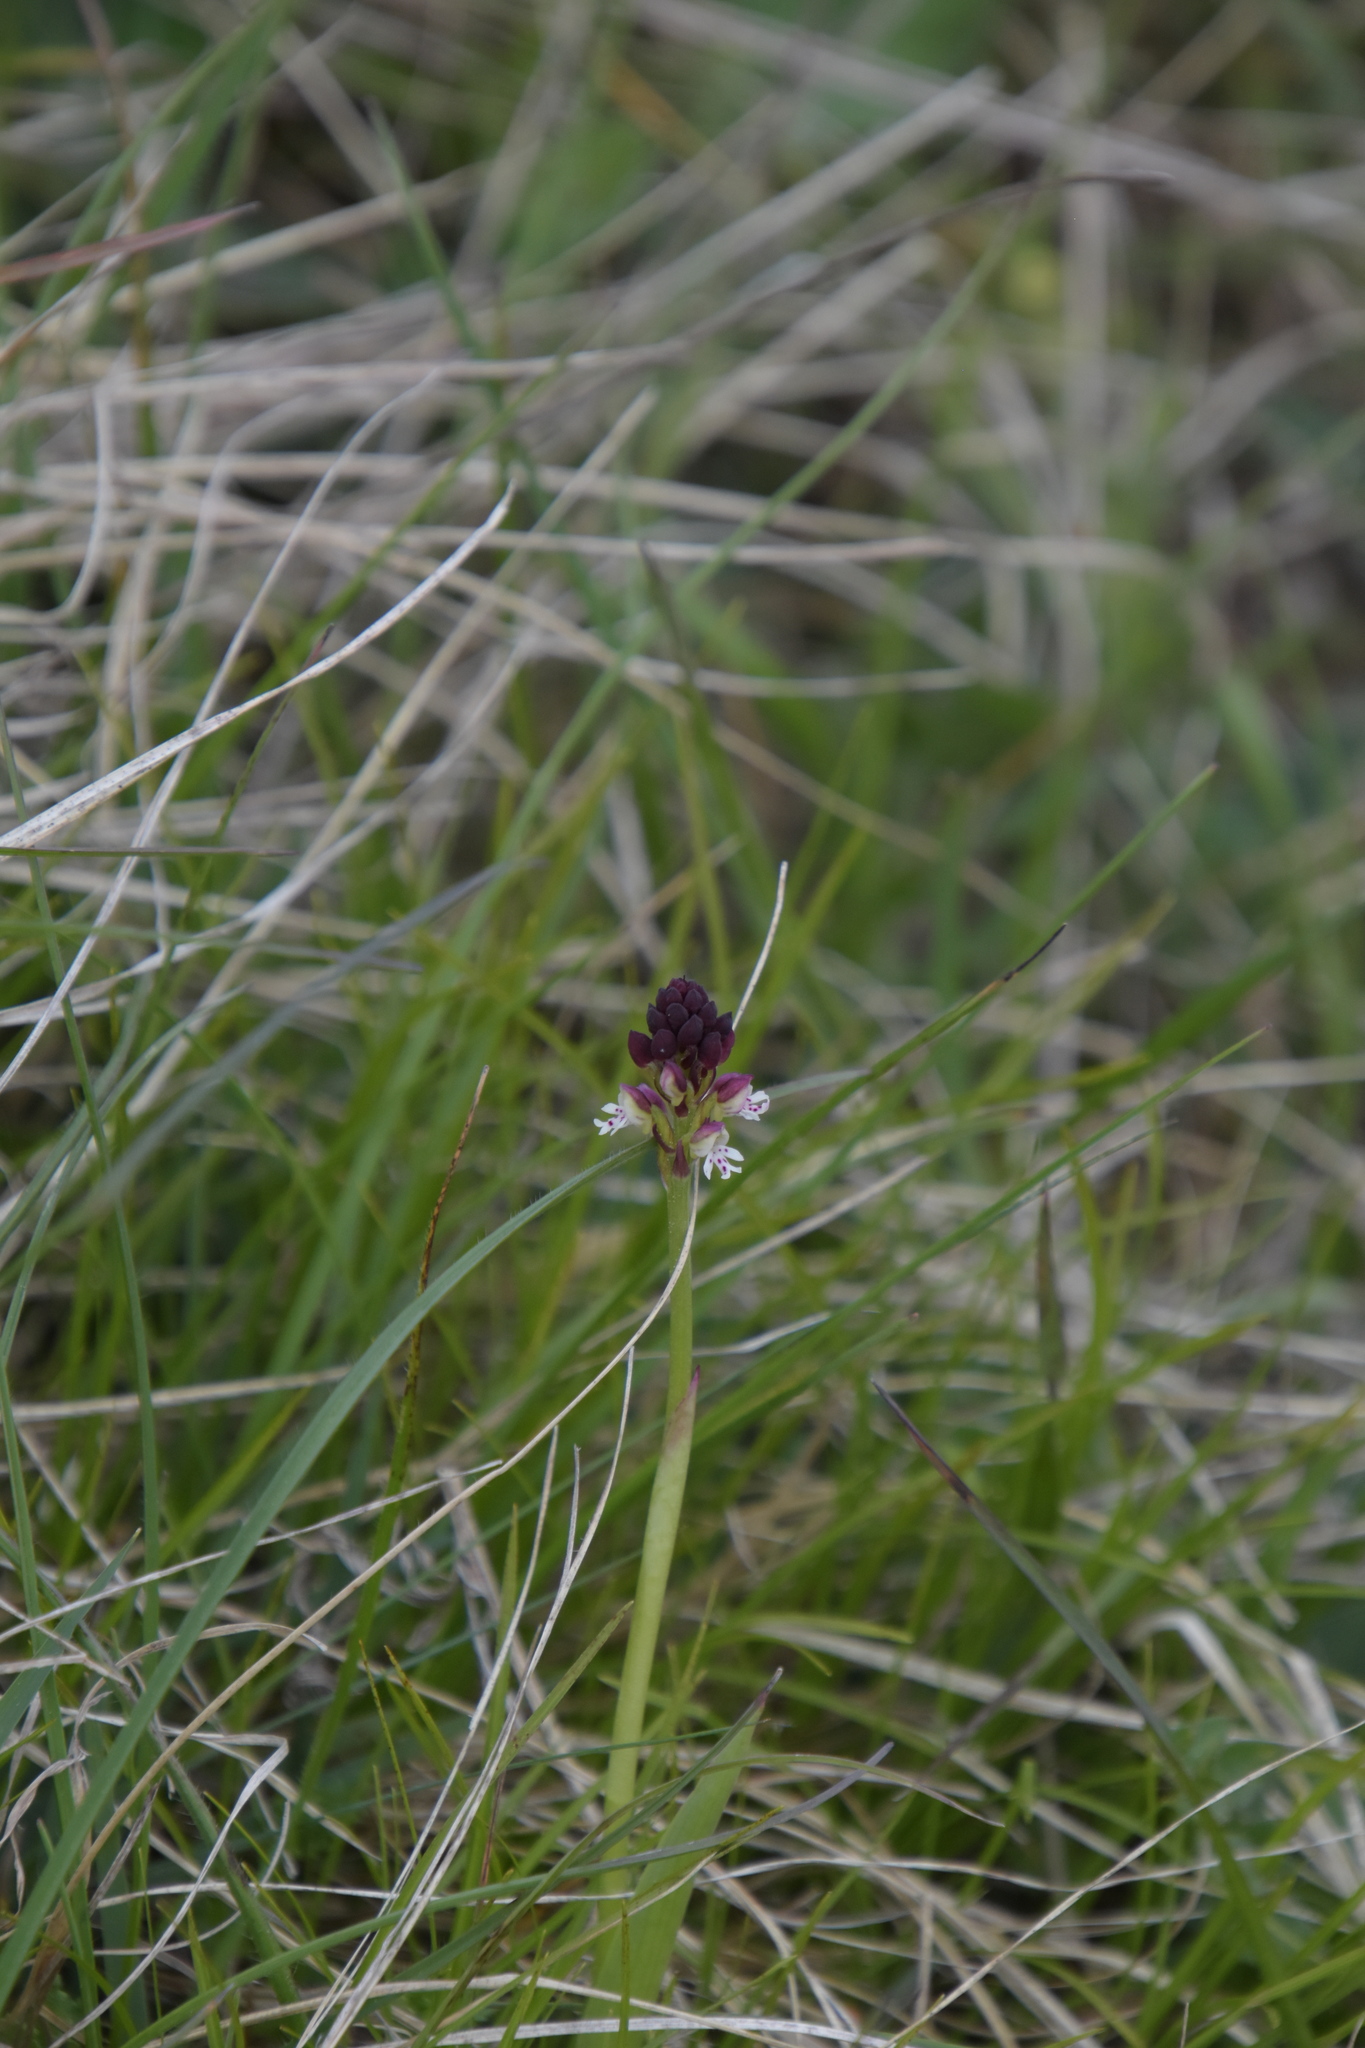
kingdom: Plantae
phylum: Tracheophyta
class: Liliopsida
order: Asparagales
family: Orchidaceae
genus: Neotinea
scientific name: Neotinea ustulata
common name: Burnt orchid
